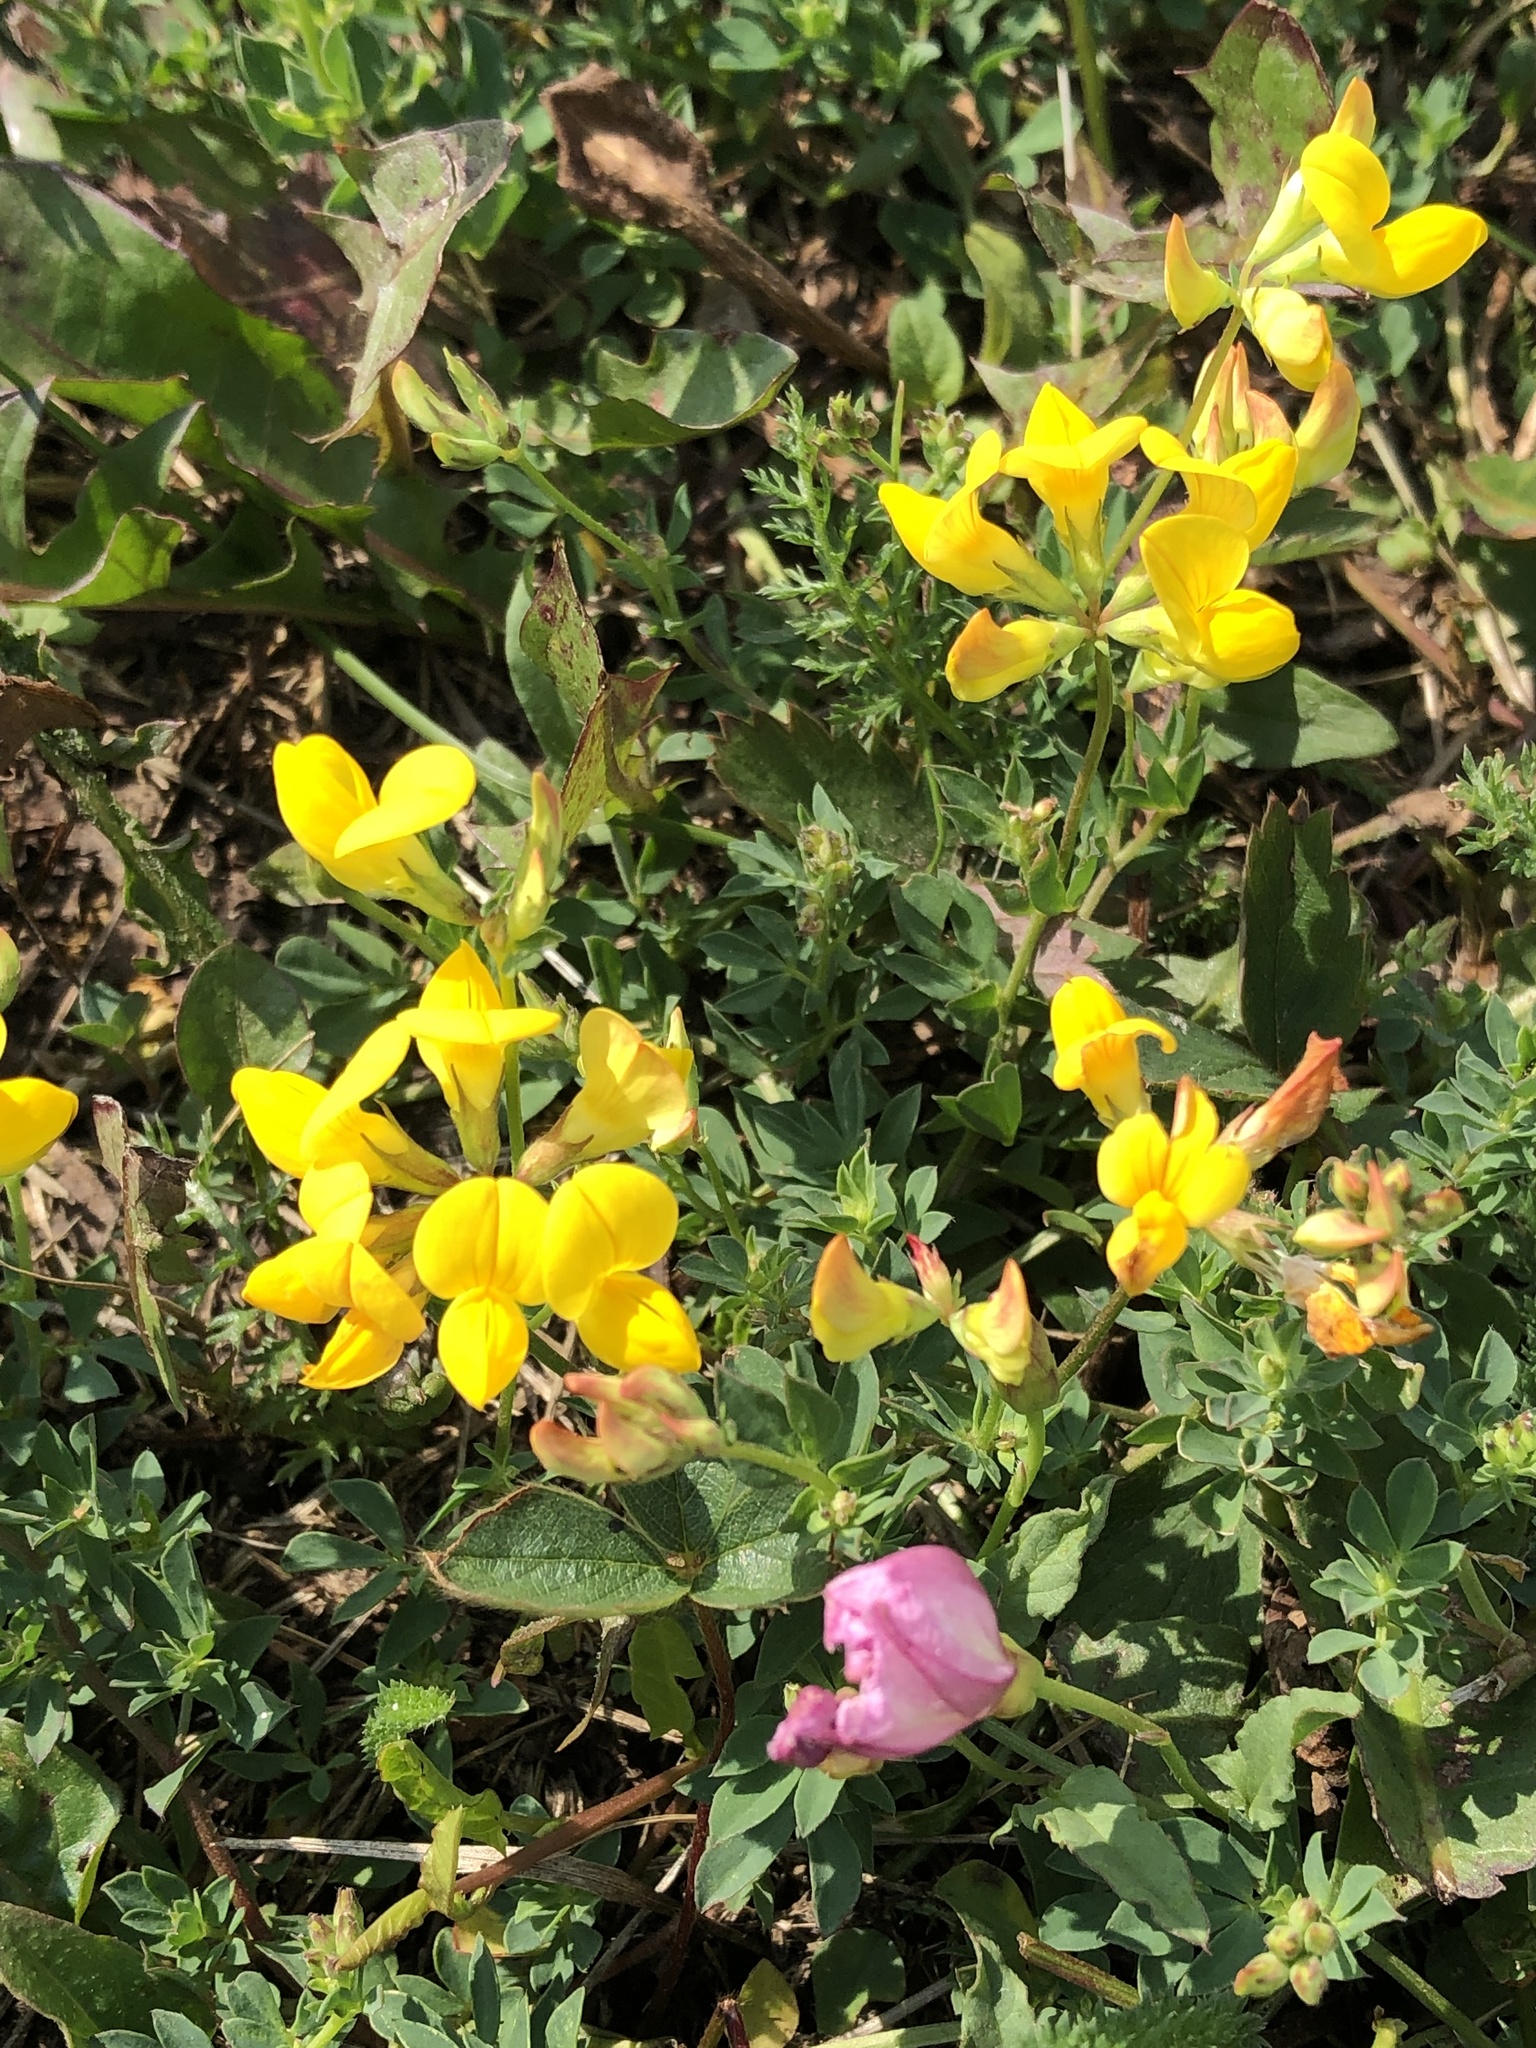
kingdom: Plantae
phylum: Tracheophyta
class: Magnoliopsida
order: Fabales
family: Fabaceae
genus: Lotus
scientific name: Lotus corniculatus
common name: Common bird's-foot-trefoil
